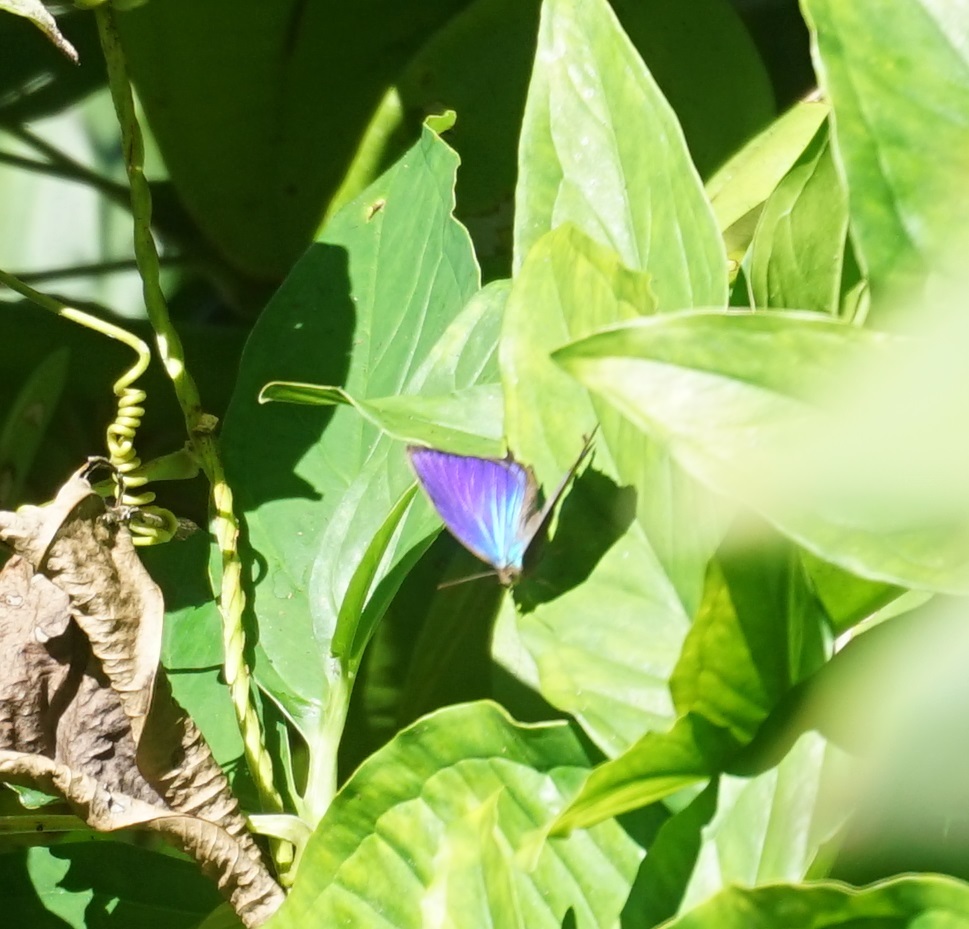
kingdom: Animalia
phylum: Arthropoda
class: Insecta
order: Lepidoptera
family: Lycaenidae
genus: Arhopala
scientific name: Arhopala micale
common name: Shining oak-blue
